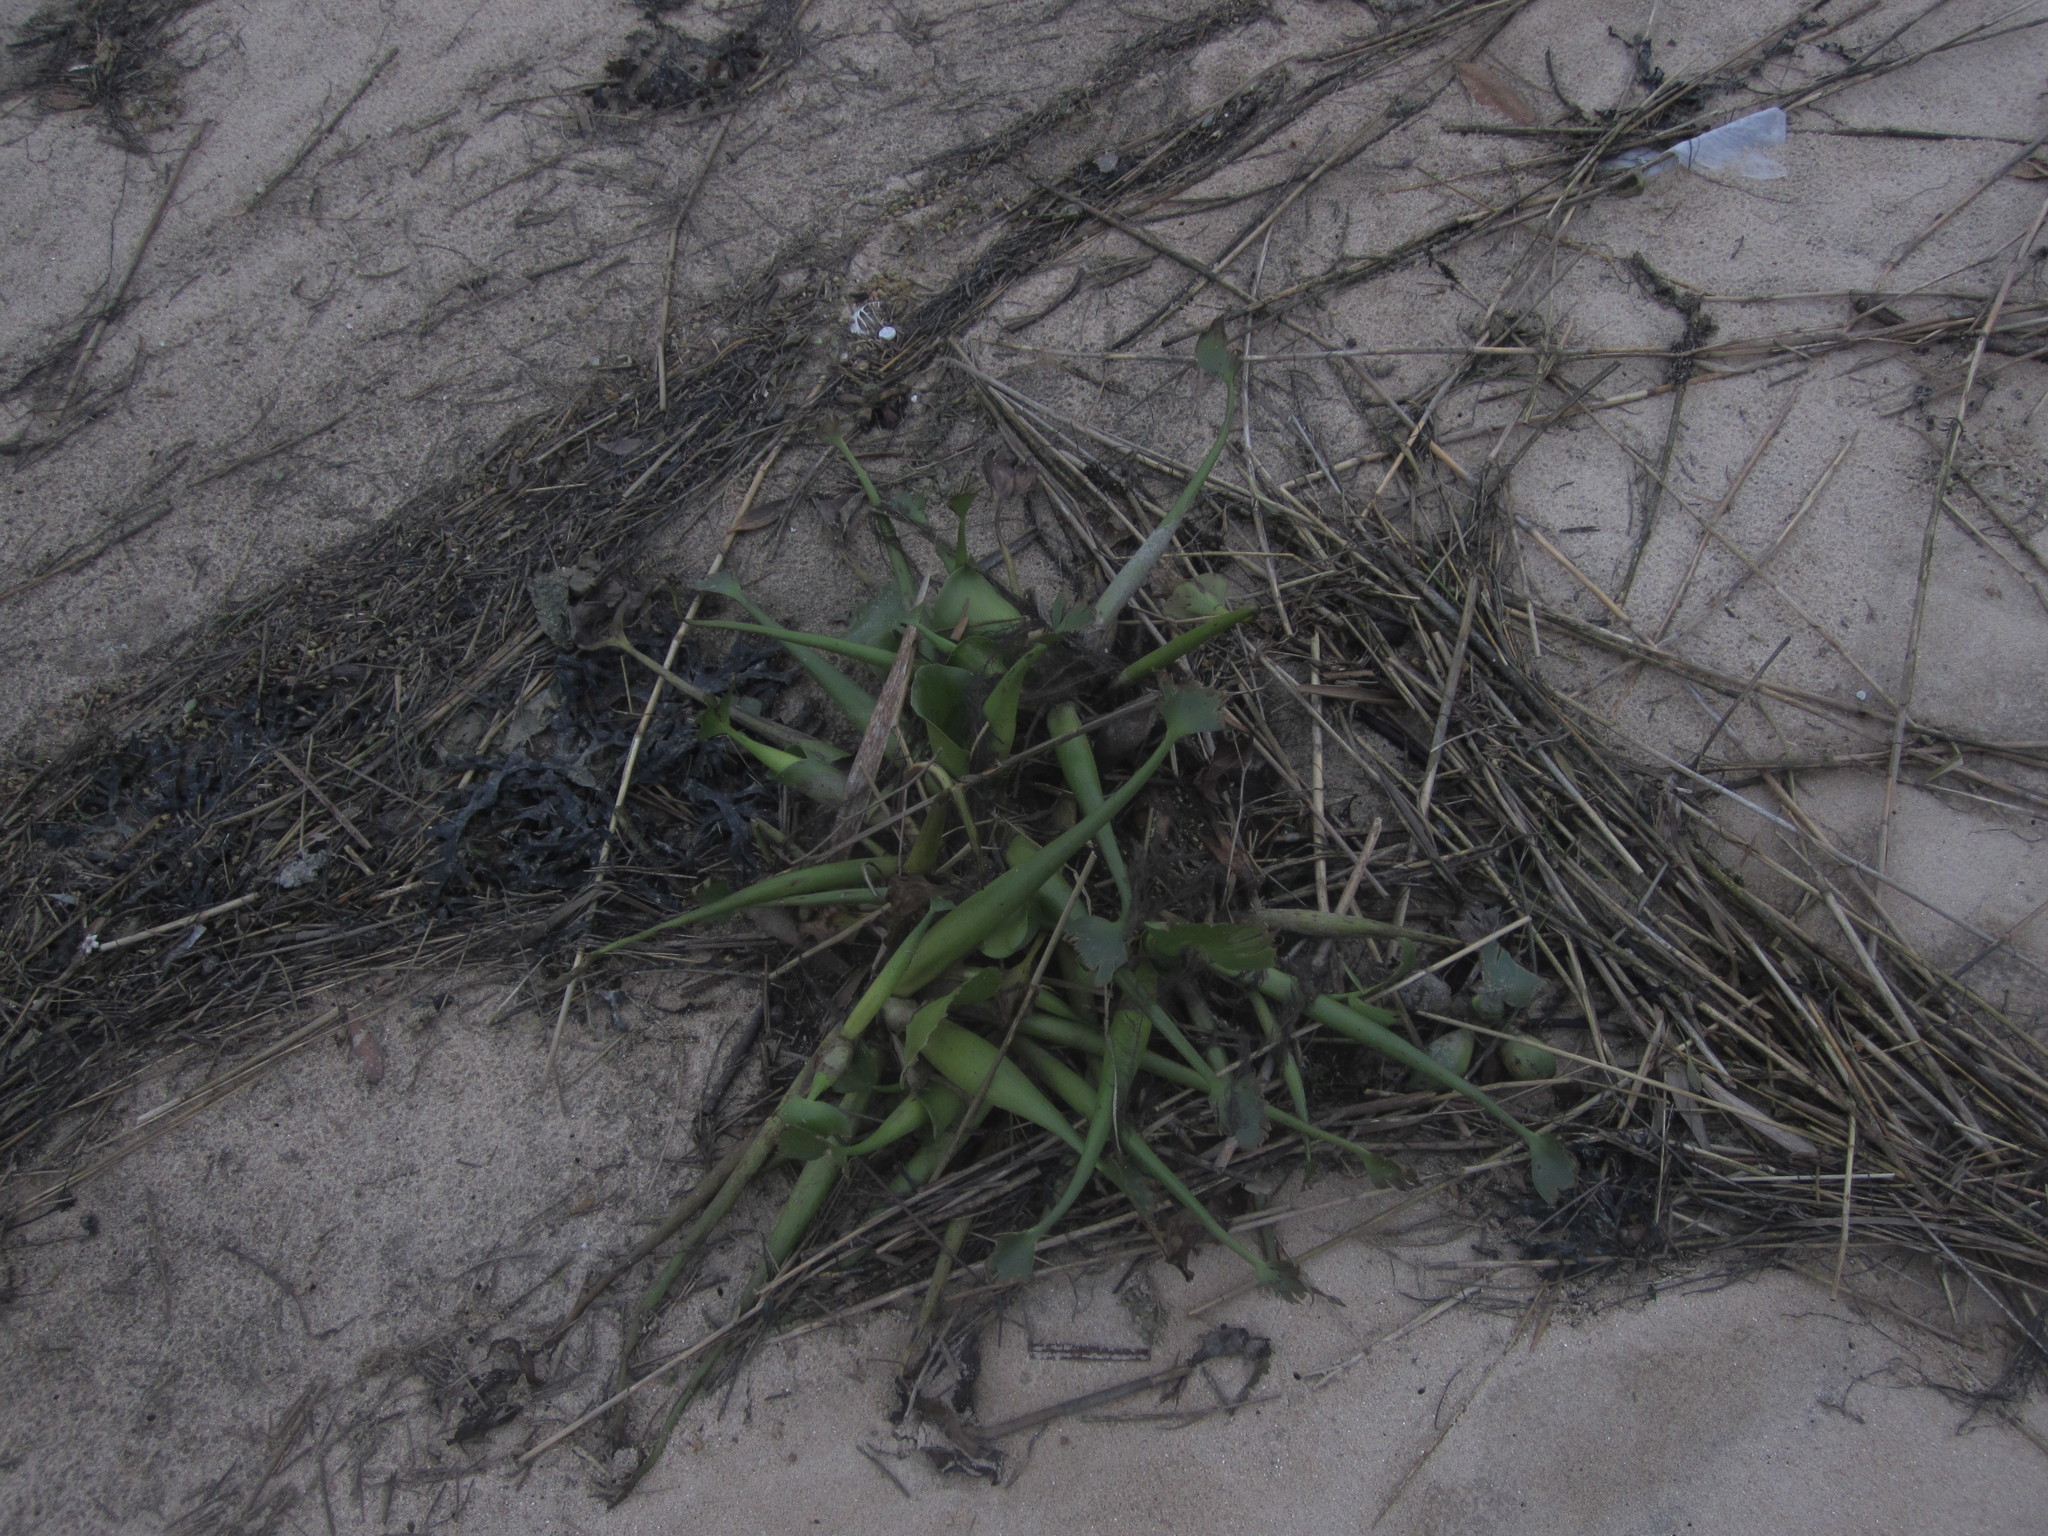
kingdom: Plantae
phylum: Tracheophyta
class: Liliopsida
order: Commelinales
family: Pontederiaceae
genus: Pontederia
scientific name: Pontederia crassipes
